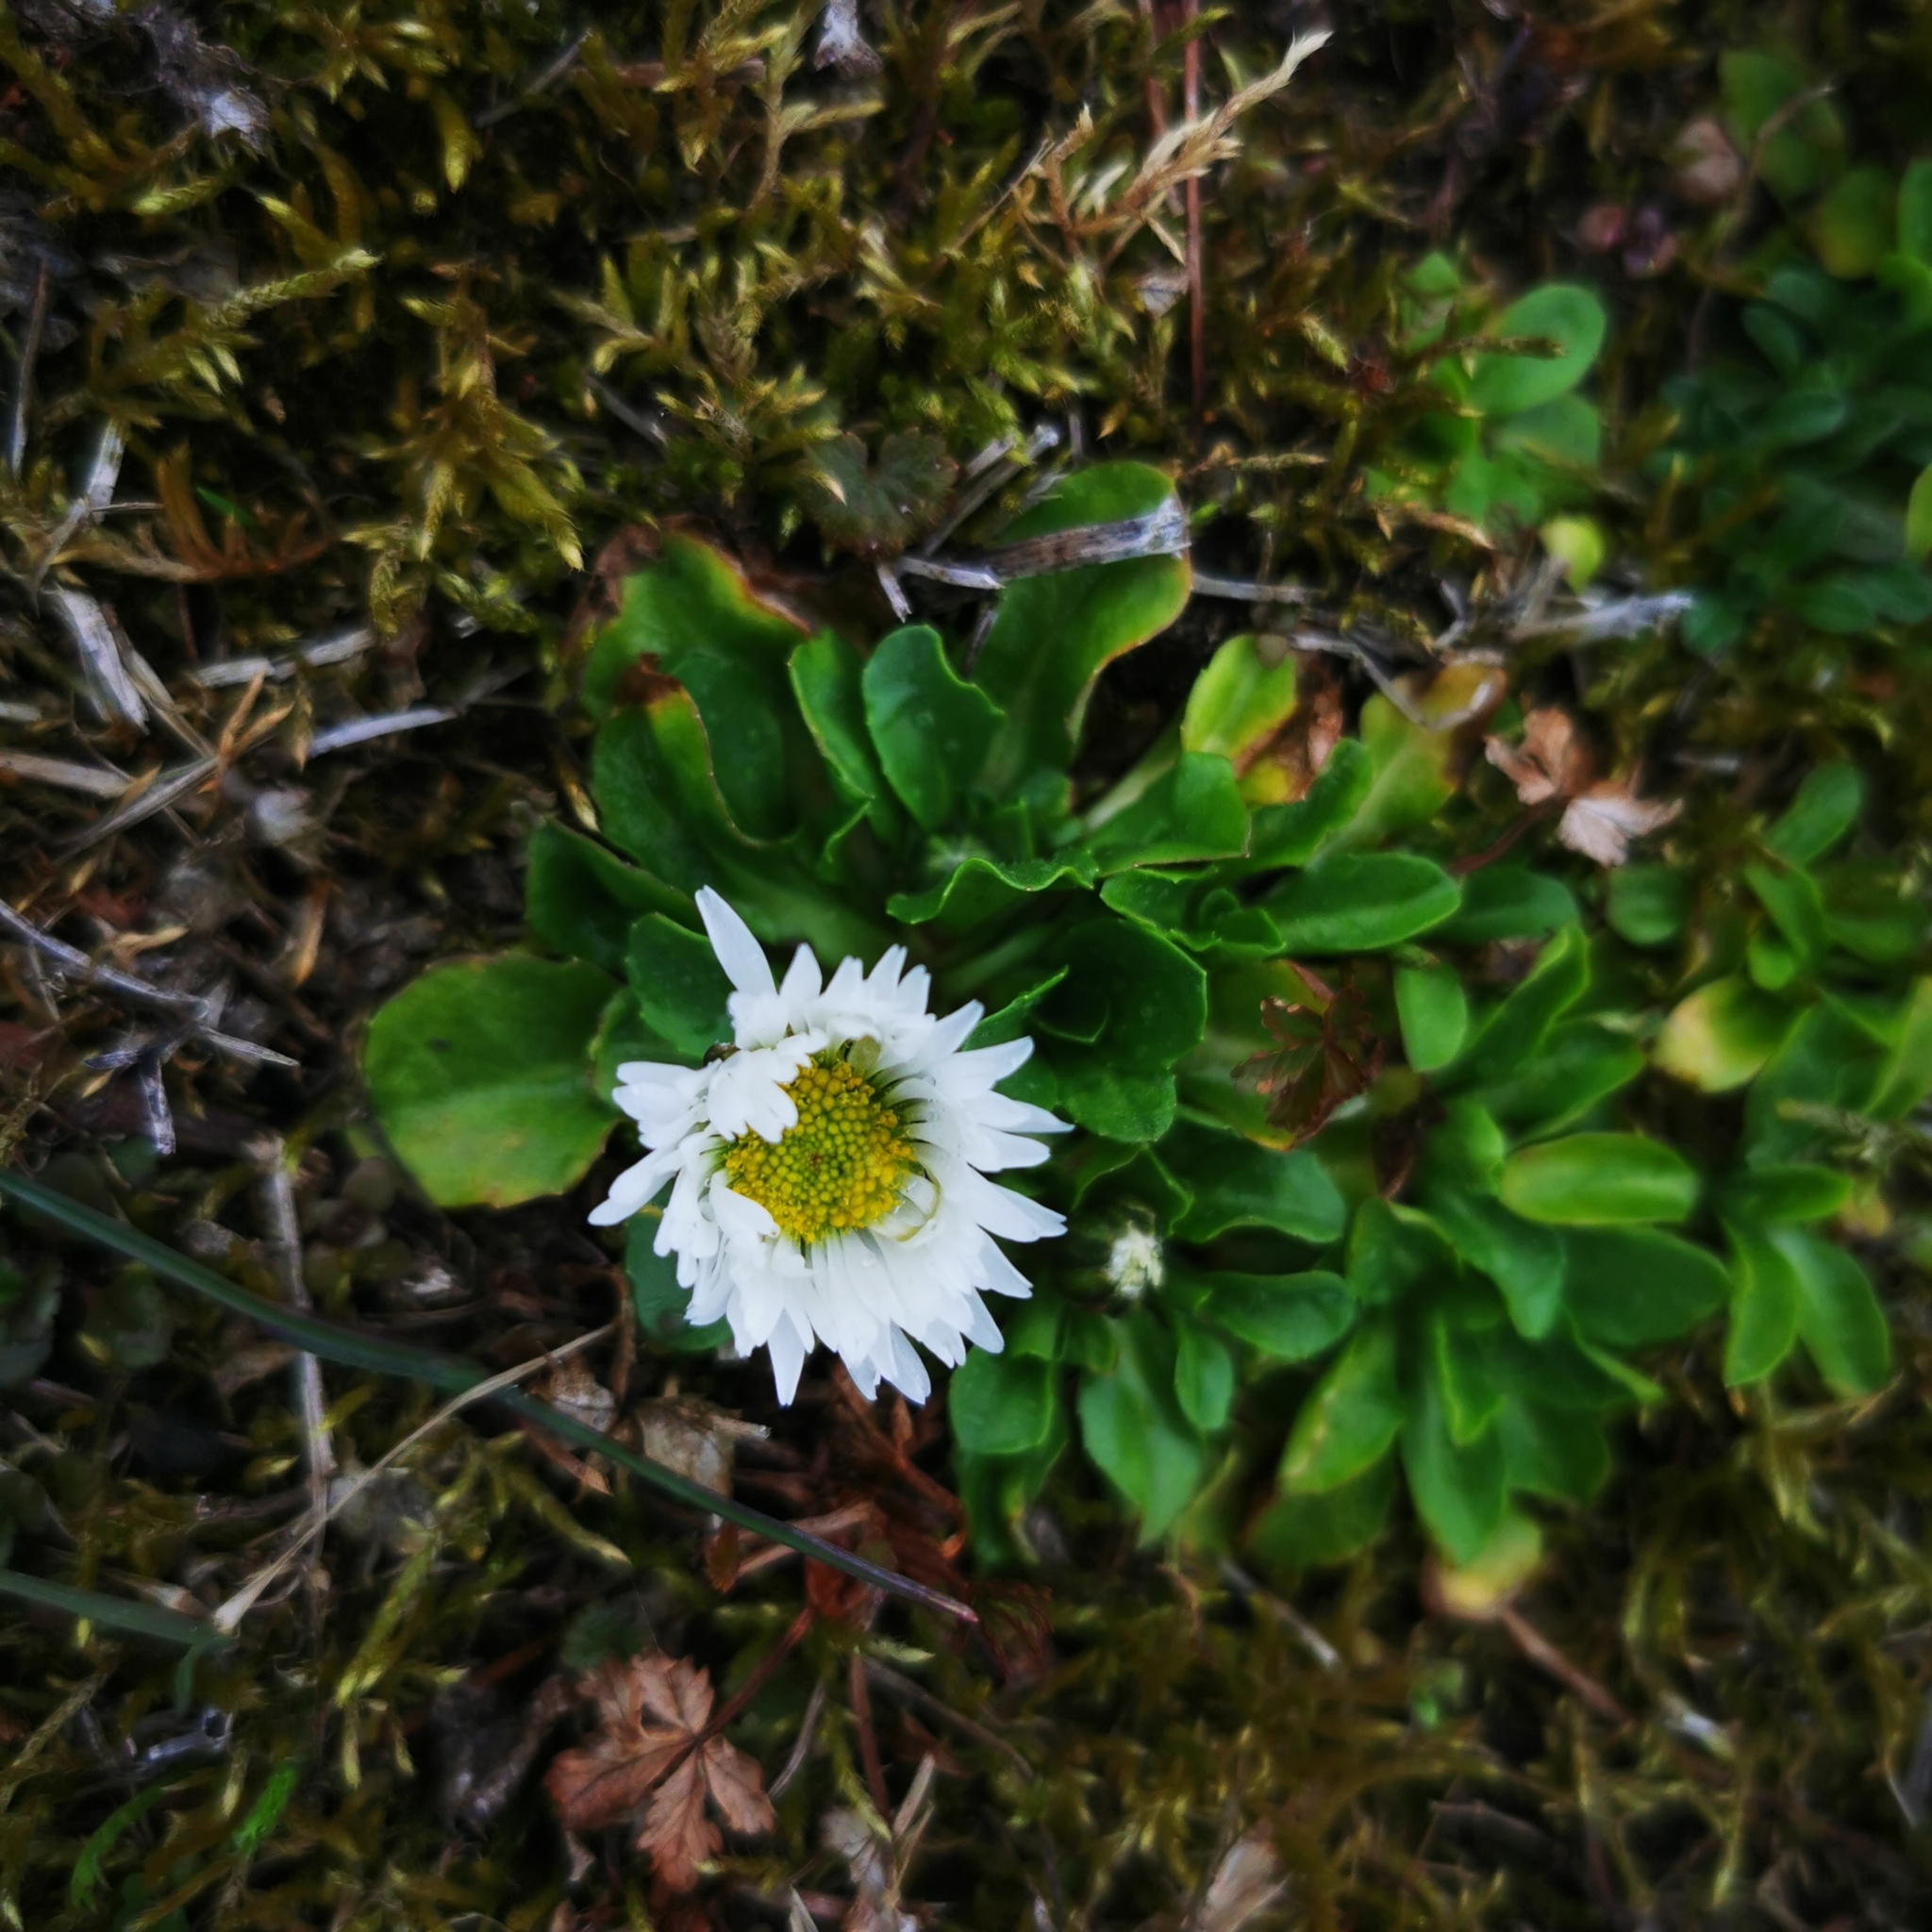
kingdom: Plantae
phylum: Tracheophyta
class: Magnoliopsida
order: Asterales
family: Asteraceae
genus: Bellis
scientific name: Bellis perennis
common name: Lawndaisy
